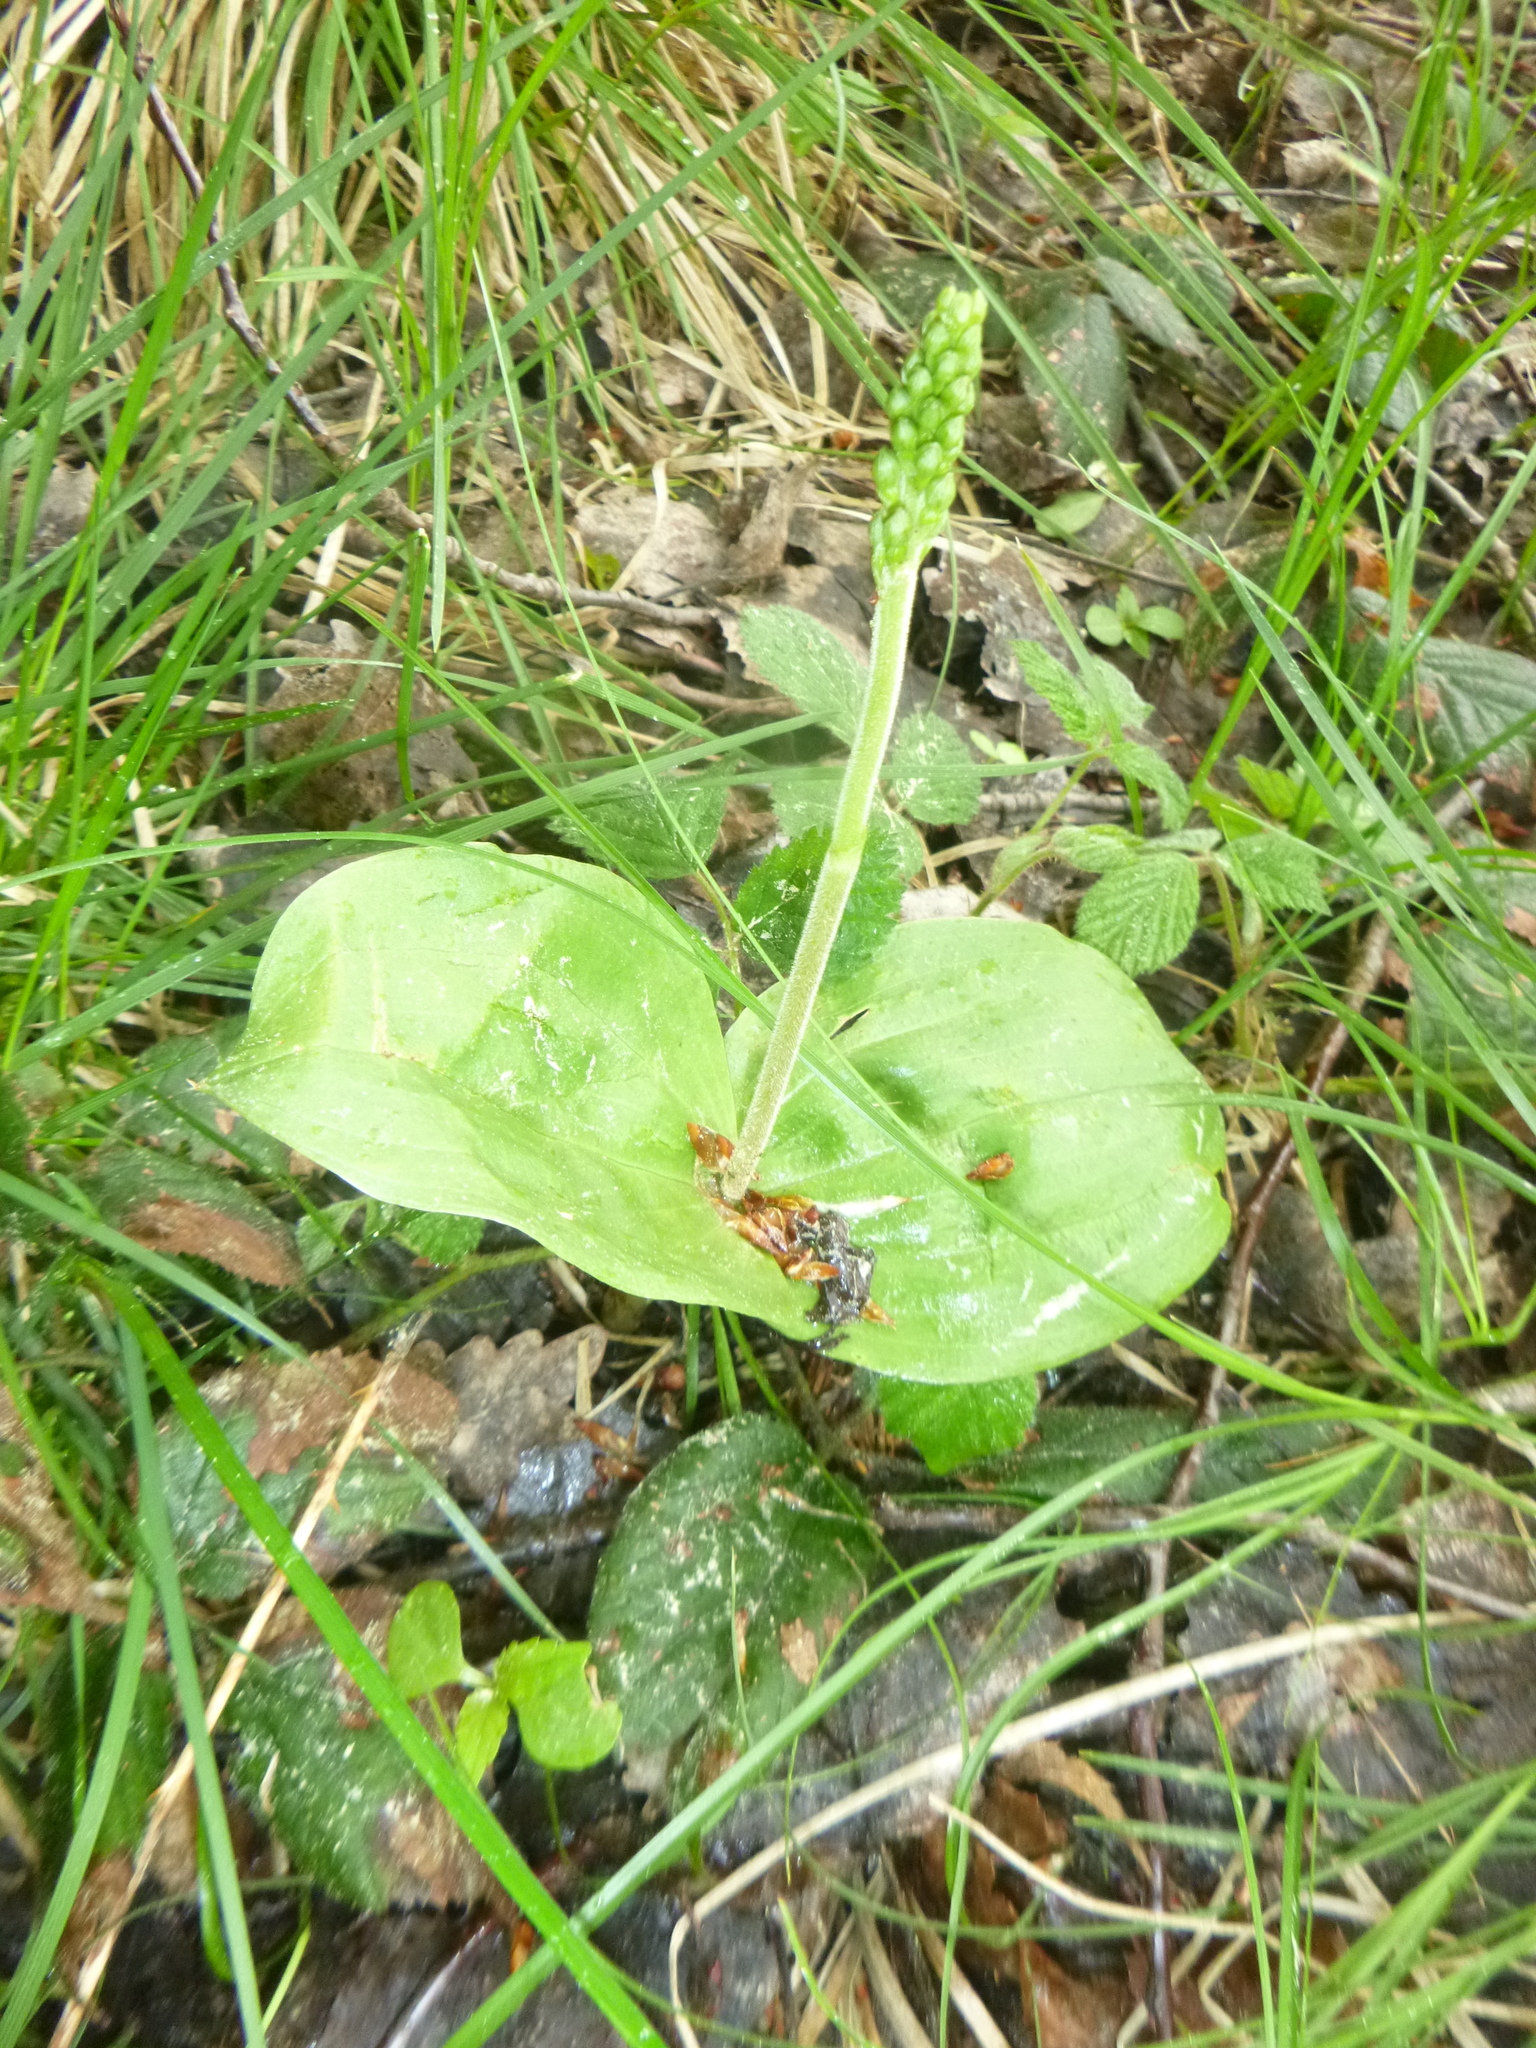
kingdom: Plantae
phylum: Tracheophyta
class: Liliopsida
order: Asparagales
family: Orchidaceae
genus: Neottia
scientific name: Neottia ovata
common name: Common twayblade
